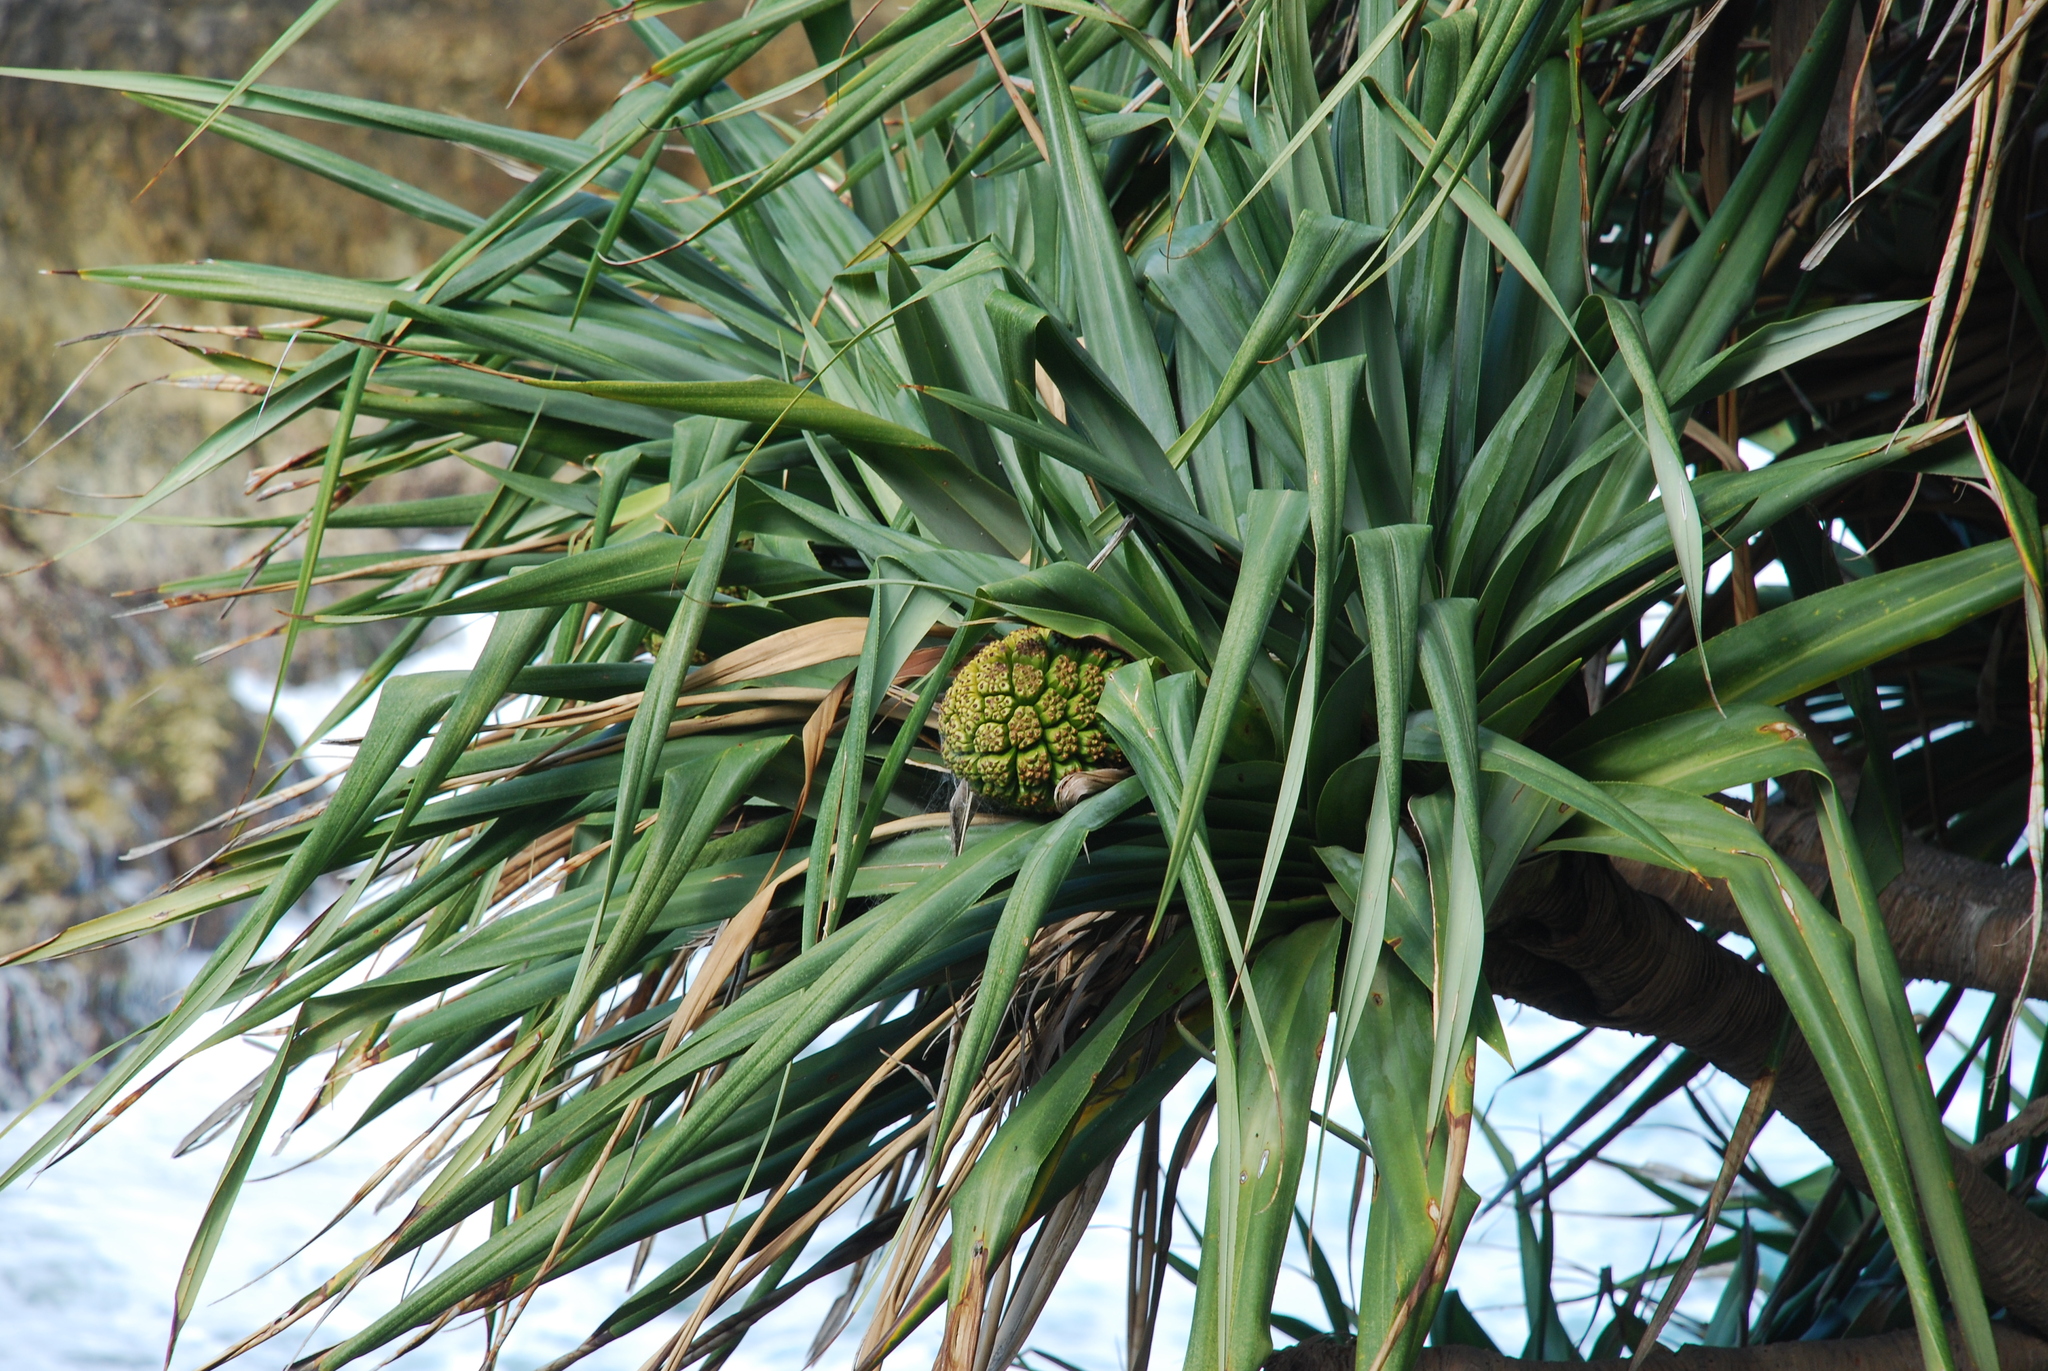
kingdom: Plantae
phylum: Tracheophyta
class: Liliopsida
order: Pandanales
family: Pandanaceae
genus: Pandanus
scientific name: Pandanus tectorius
